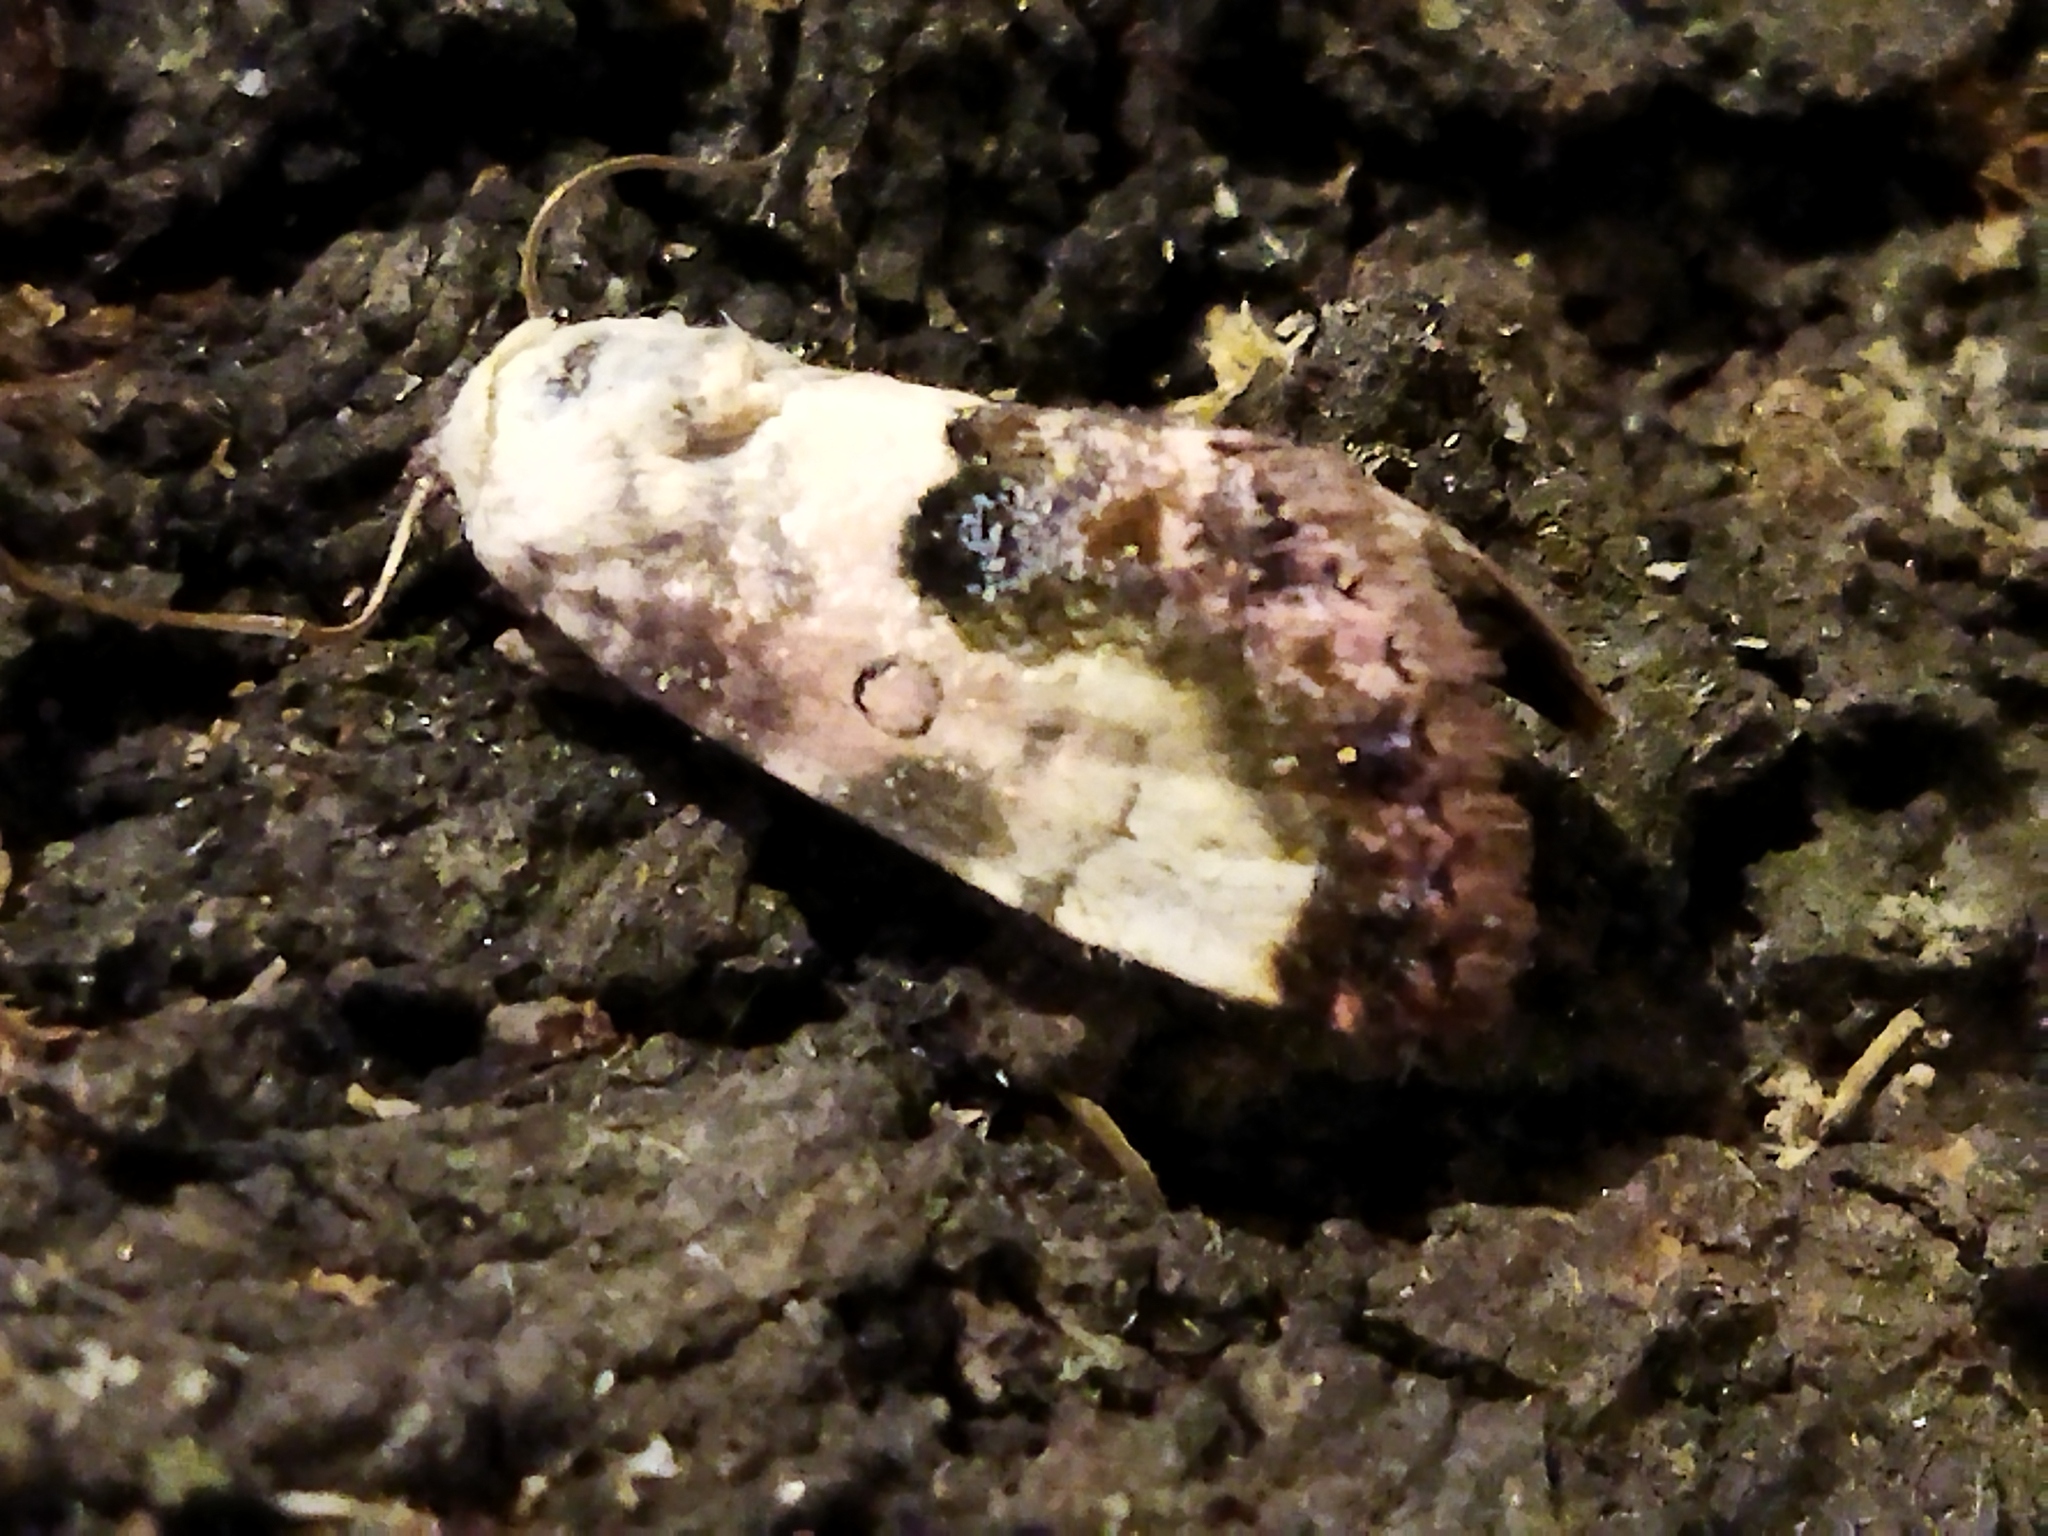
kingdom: Animalia
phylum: Arthropoda
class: Insecta
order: Lepidoptera
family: Noctuidae
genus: Acontia
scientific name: Acontia titania
